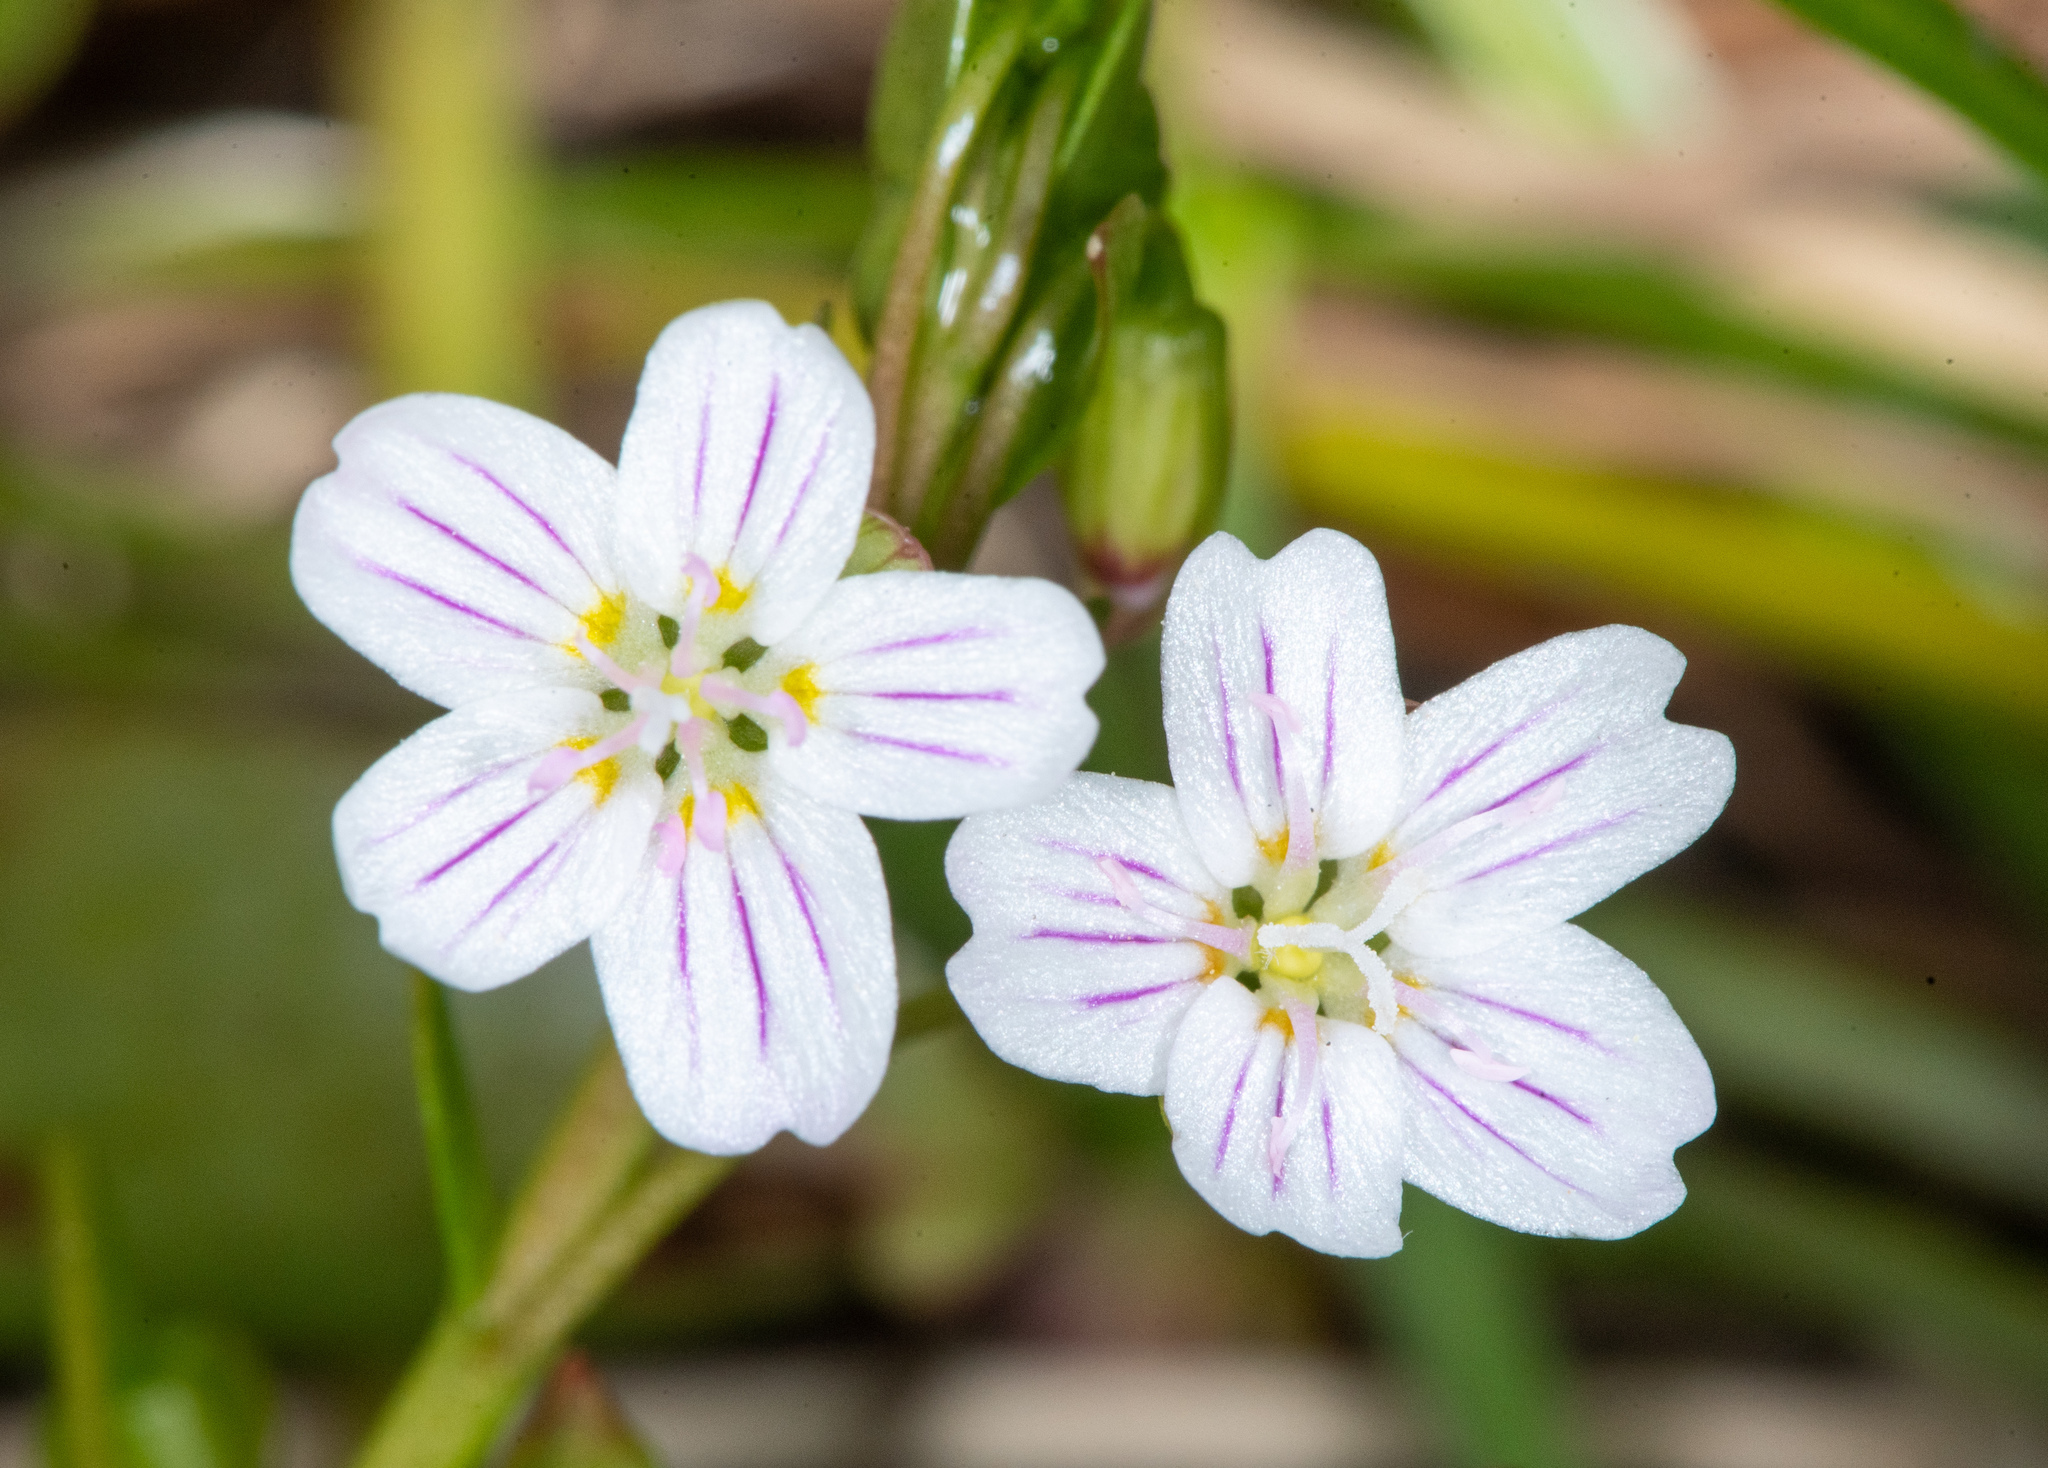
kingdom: Plantae
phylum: Tracheophyta
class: Magnoliopsida
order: Caryophyllales
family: Montiaceae
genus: Claytonia
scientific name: Claytonia sibirica
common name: Pink purslane
